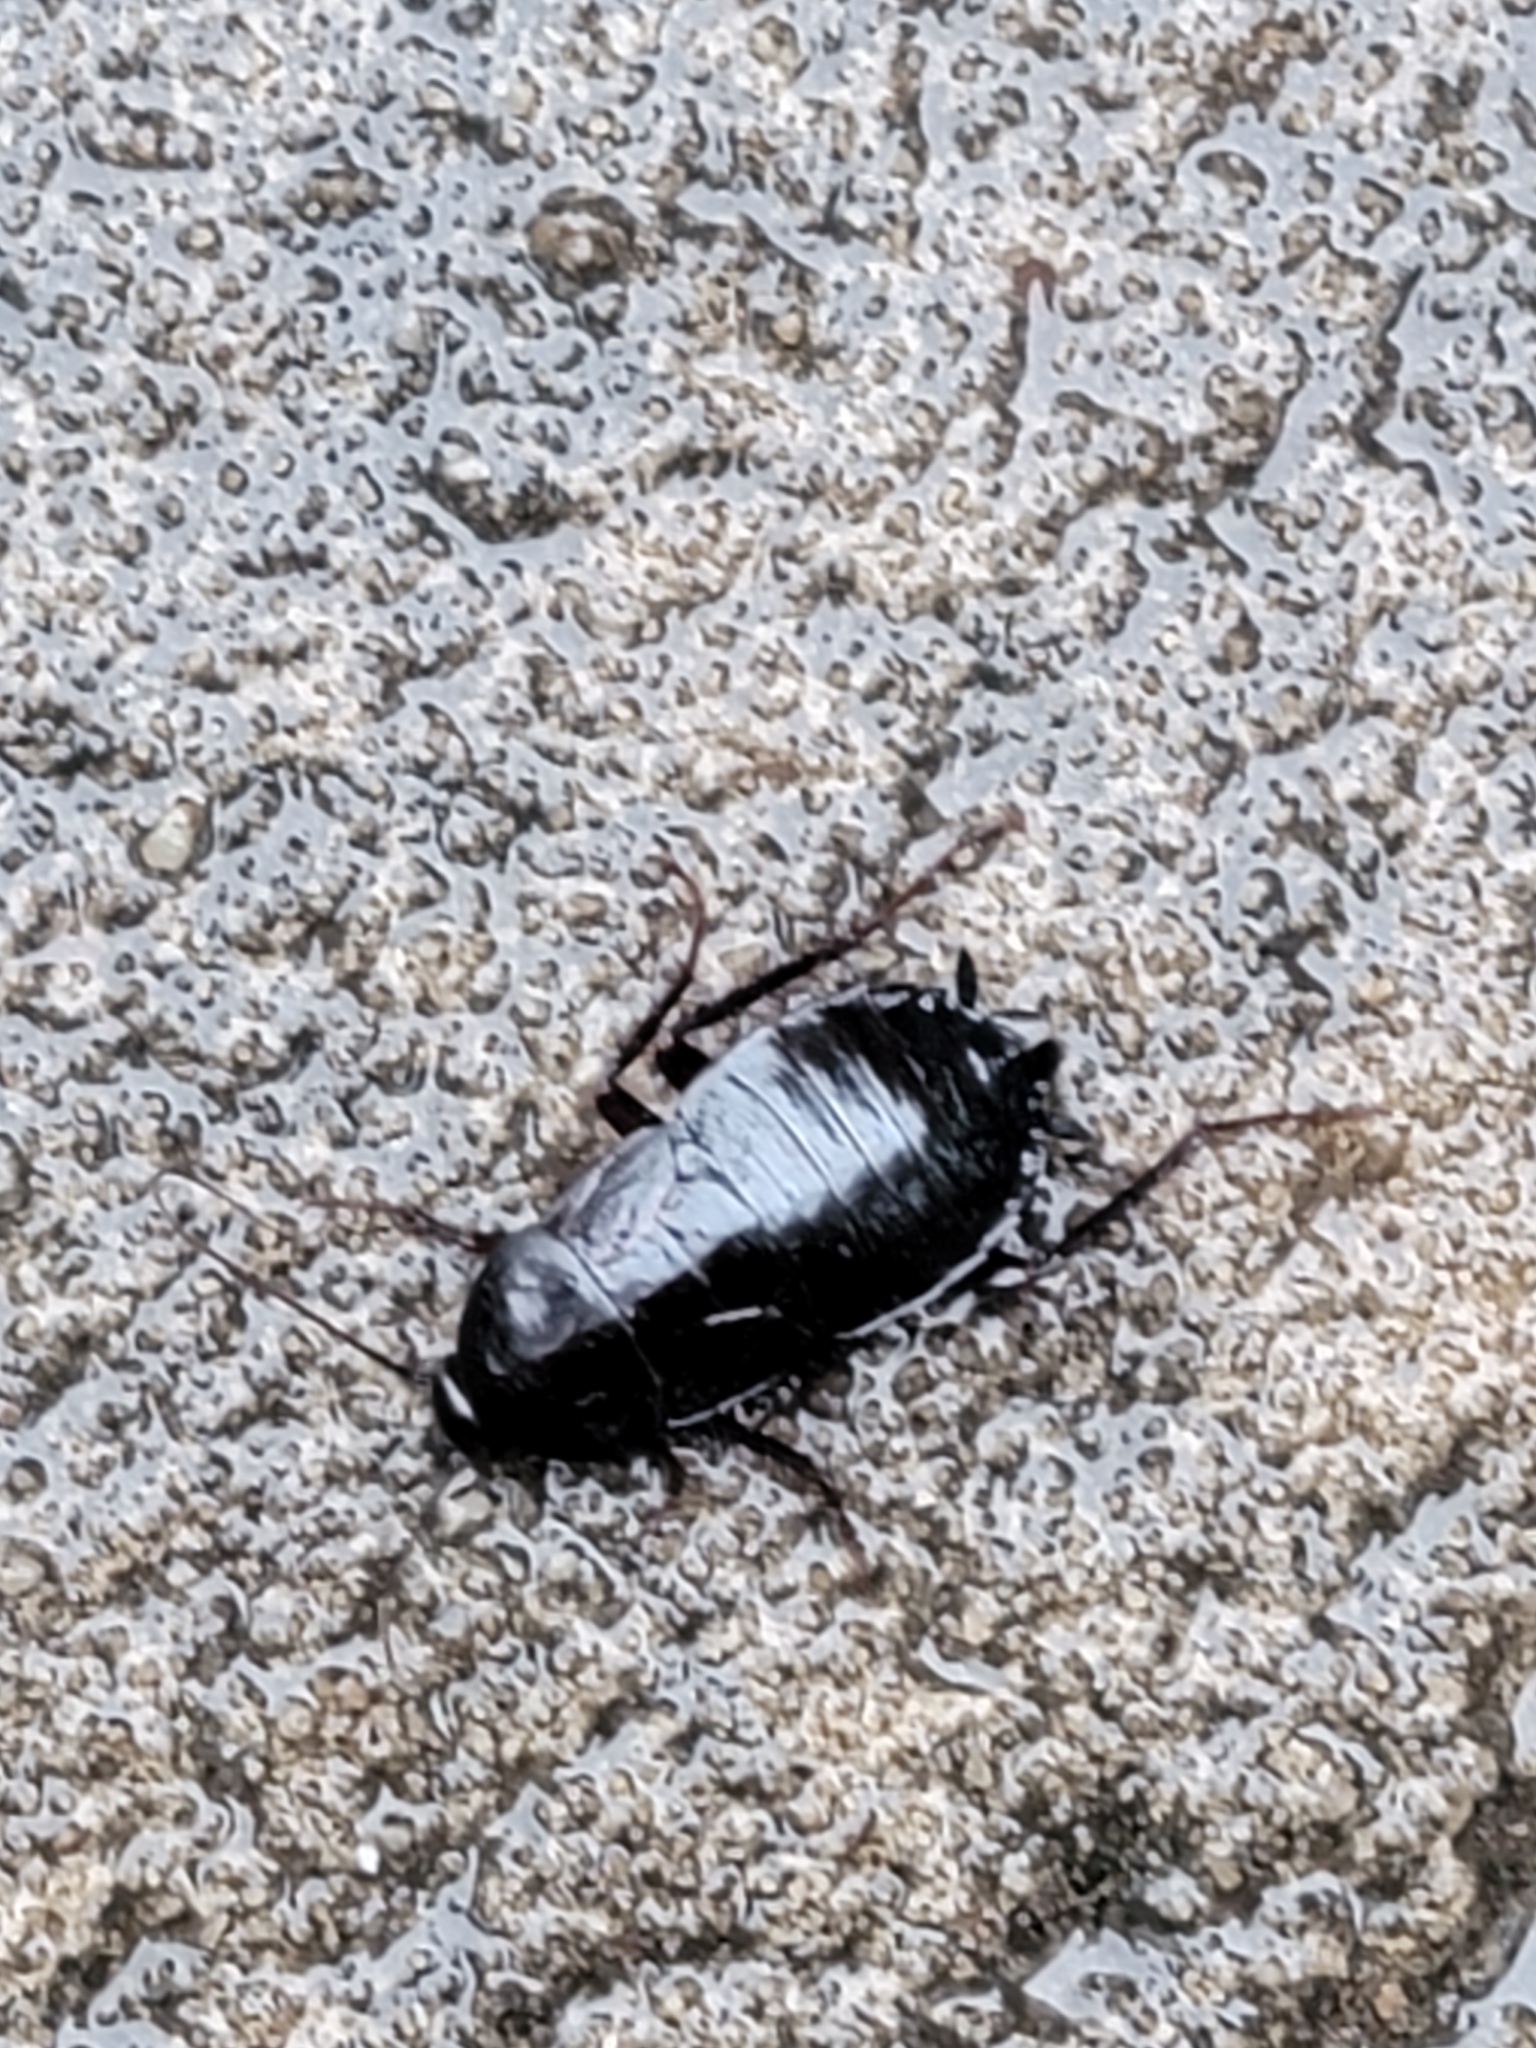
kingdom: Animalia
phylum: Arthropoda
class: Insecta
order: Blattodea
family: Blattidae
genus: Blatta
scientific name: Blatta orientalis
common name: Oriental cockroach
